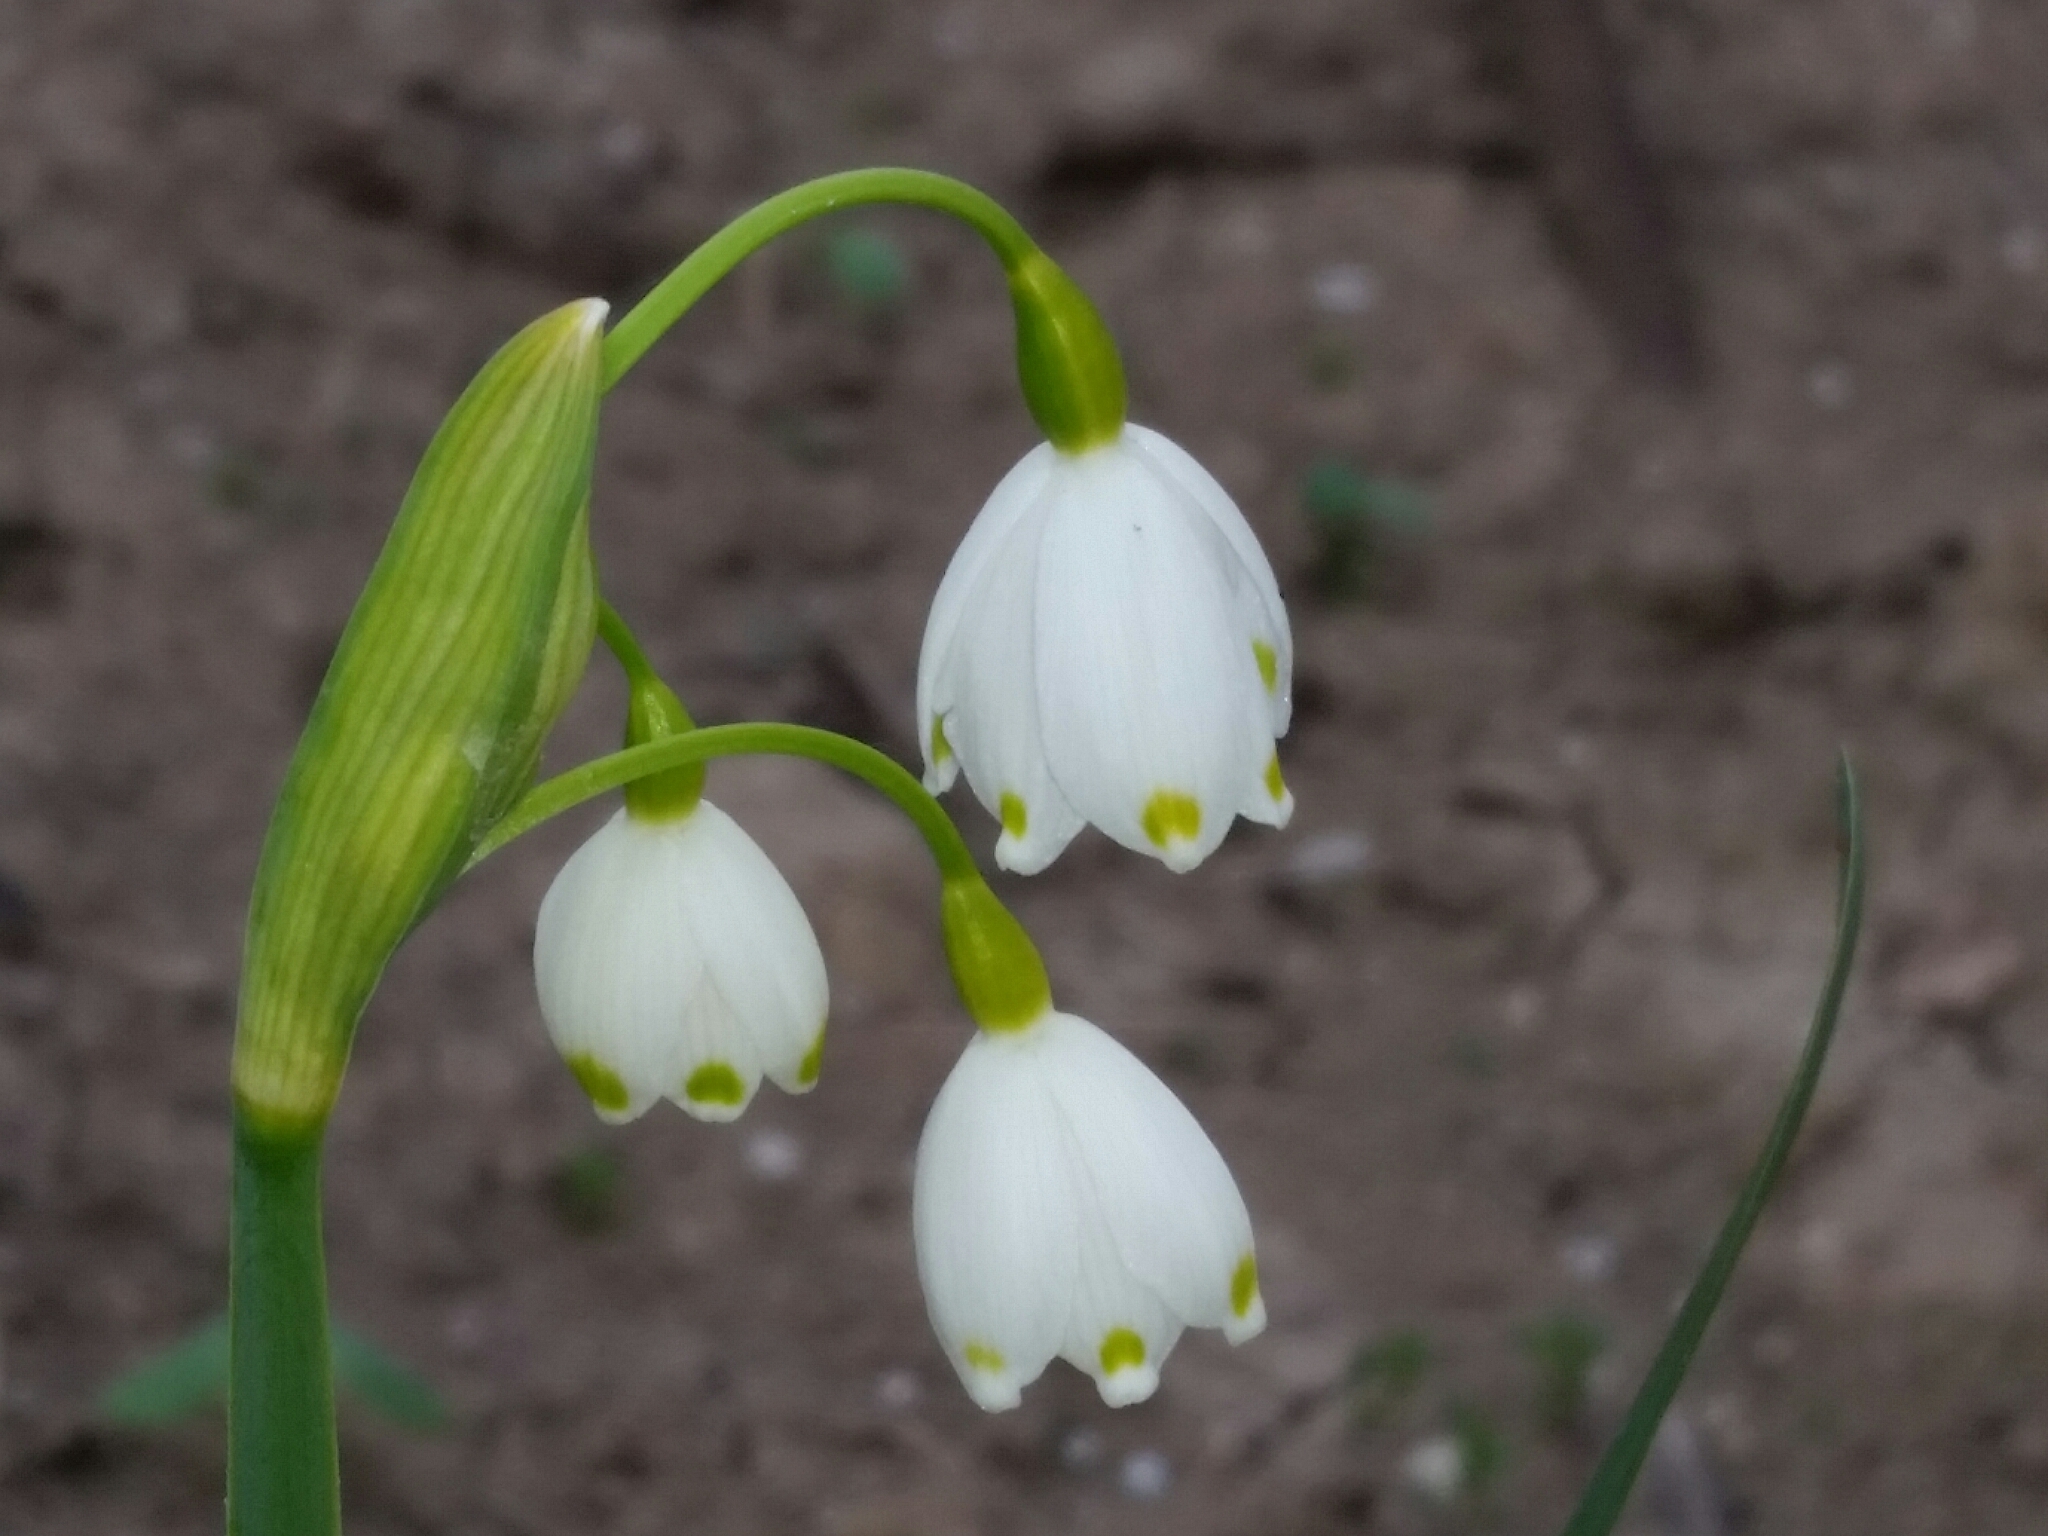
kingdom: Plantae
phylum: Tracheophyta
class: Liliopsida
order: Asparagales
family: Amaryllidaceae
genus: Leucojum
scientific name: Leucojum aestivum
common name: Summer snowflake
